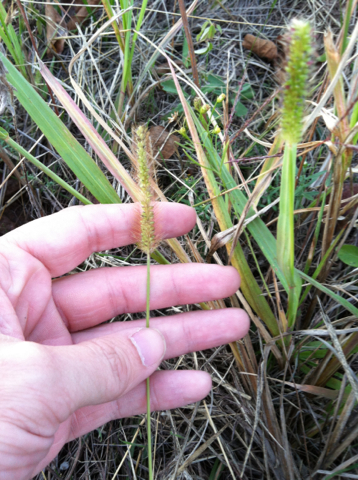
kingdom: Plantae
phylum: Tracheophyta
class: Liliopsida
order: Poales
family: Poaceae
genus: Setaria
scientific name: Setaria parviflora
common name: Knotroot bristle-grass
